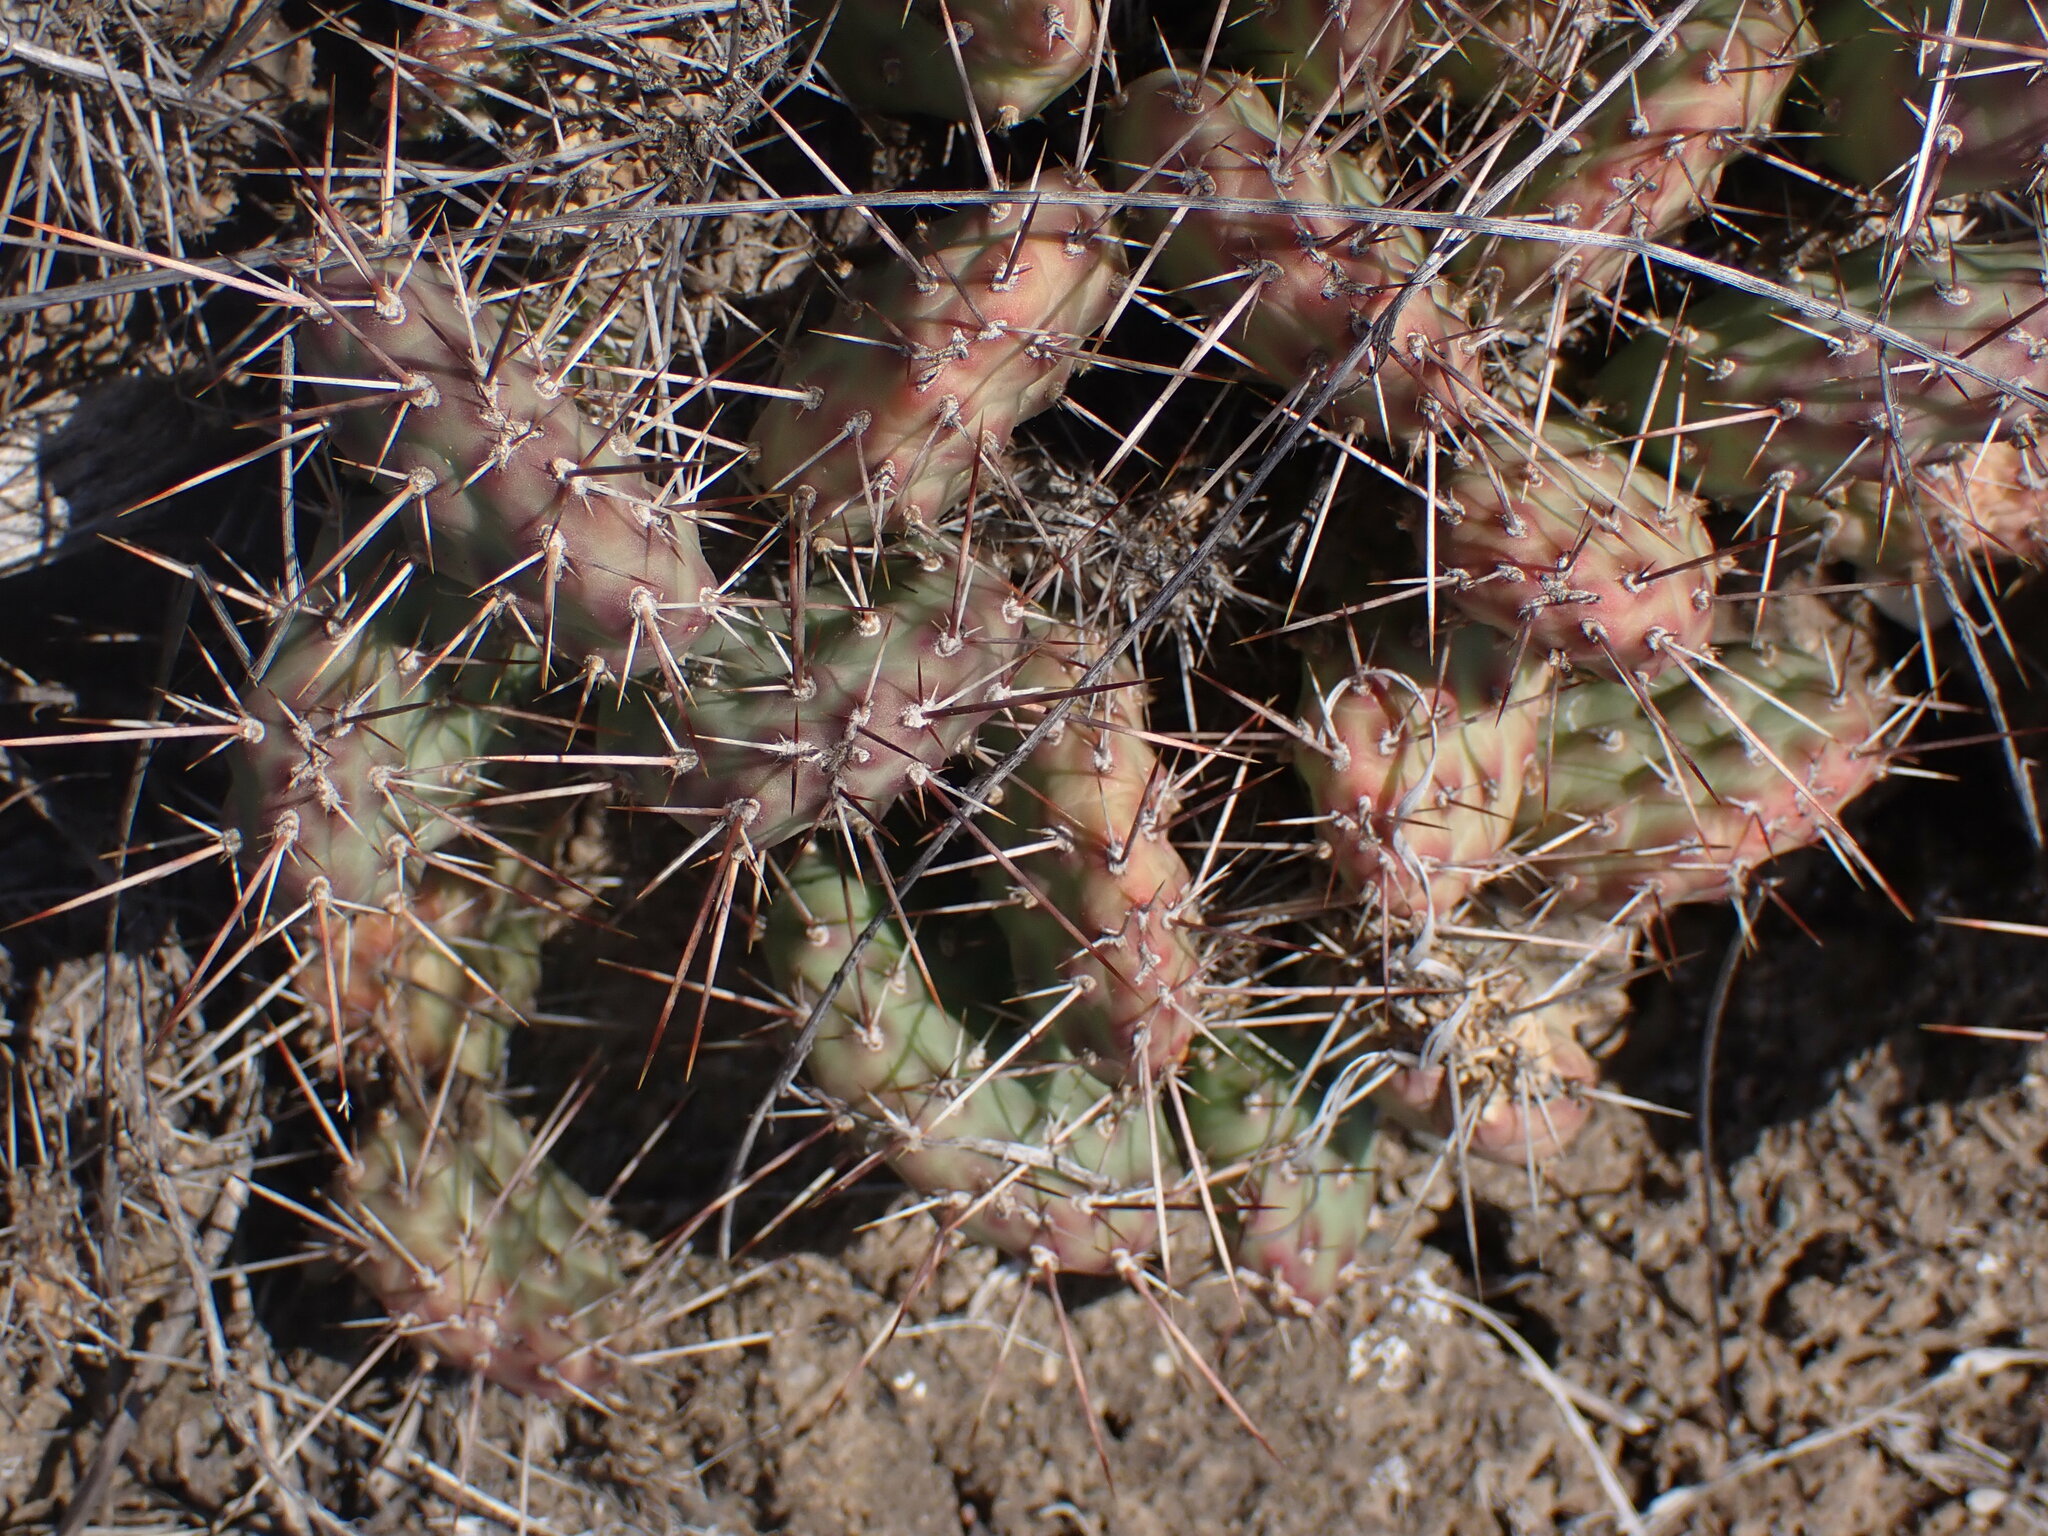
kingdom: Plantae
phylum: Tracheophyta
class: Magnoliopsida
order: Caryophyllales
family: Cactaceae
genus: Opuntia
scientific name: Opuntia fragilis
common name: Brittle cactus
